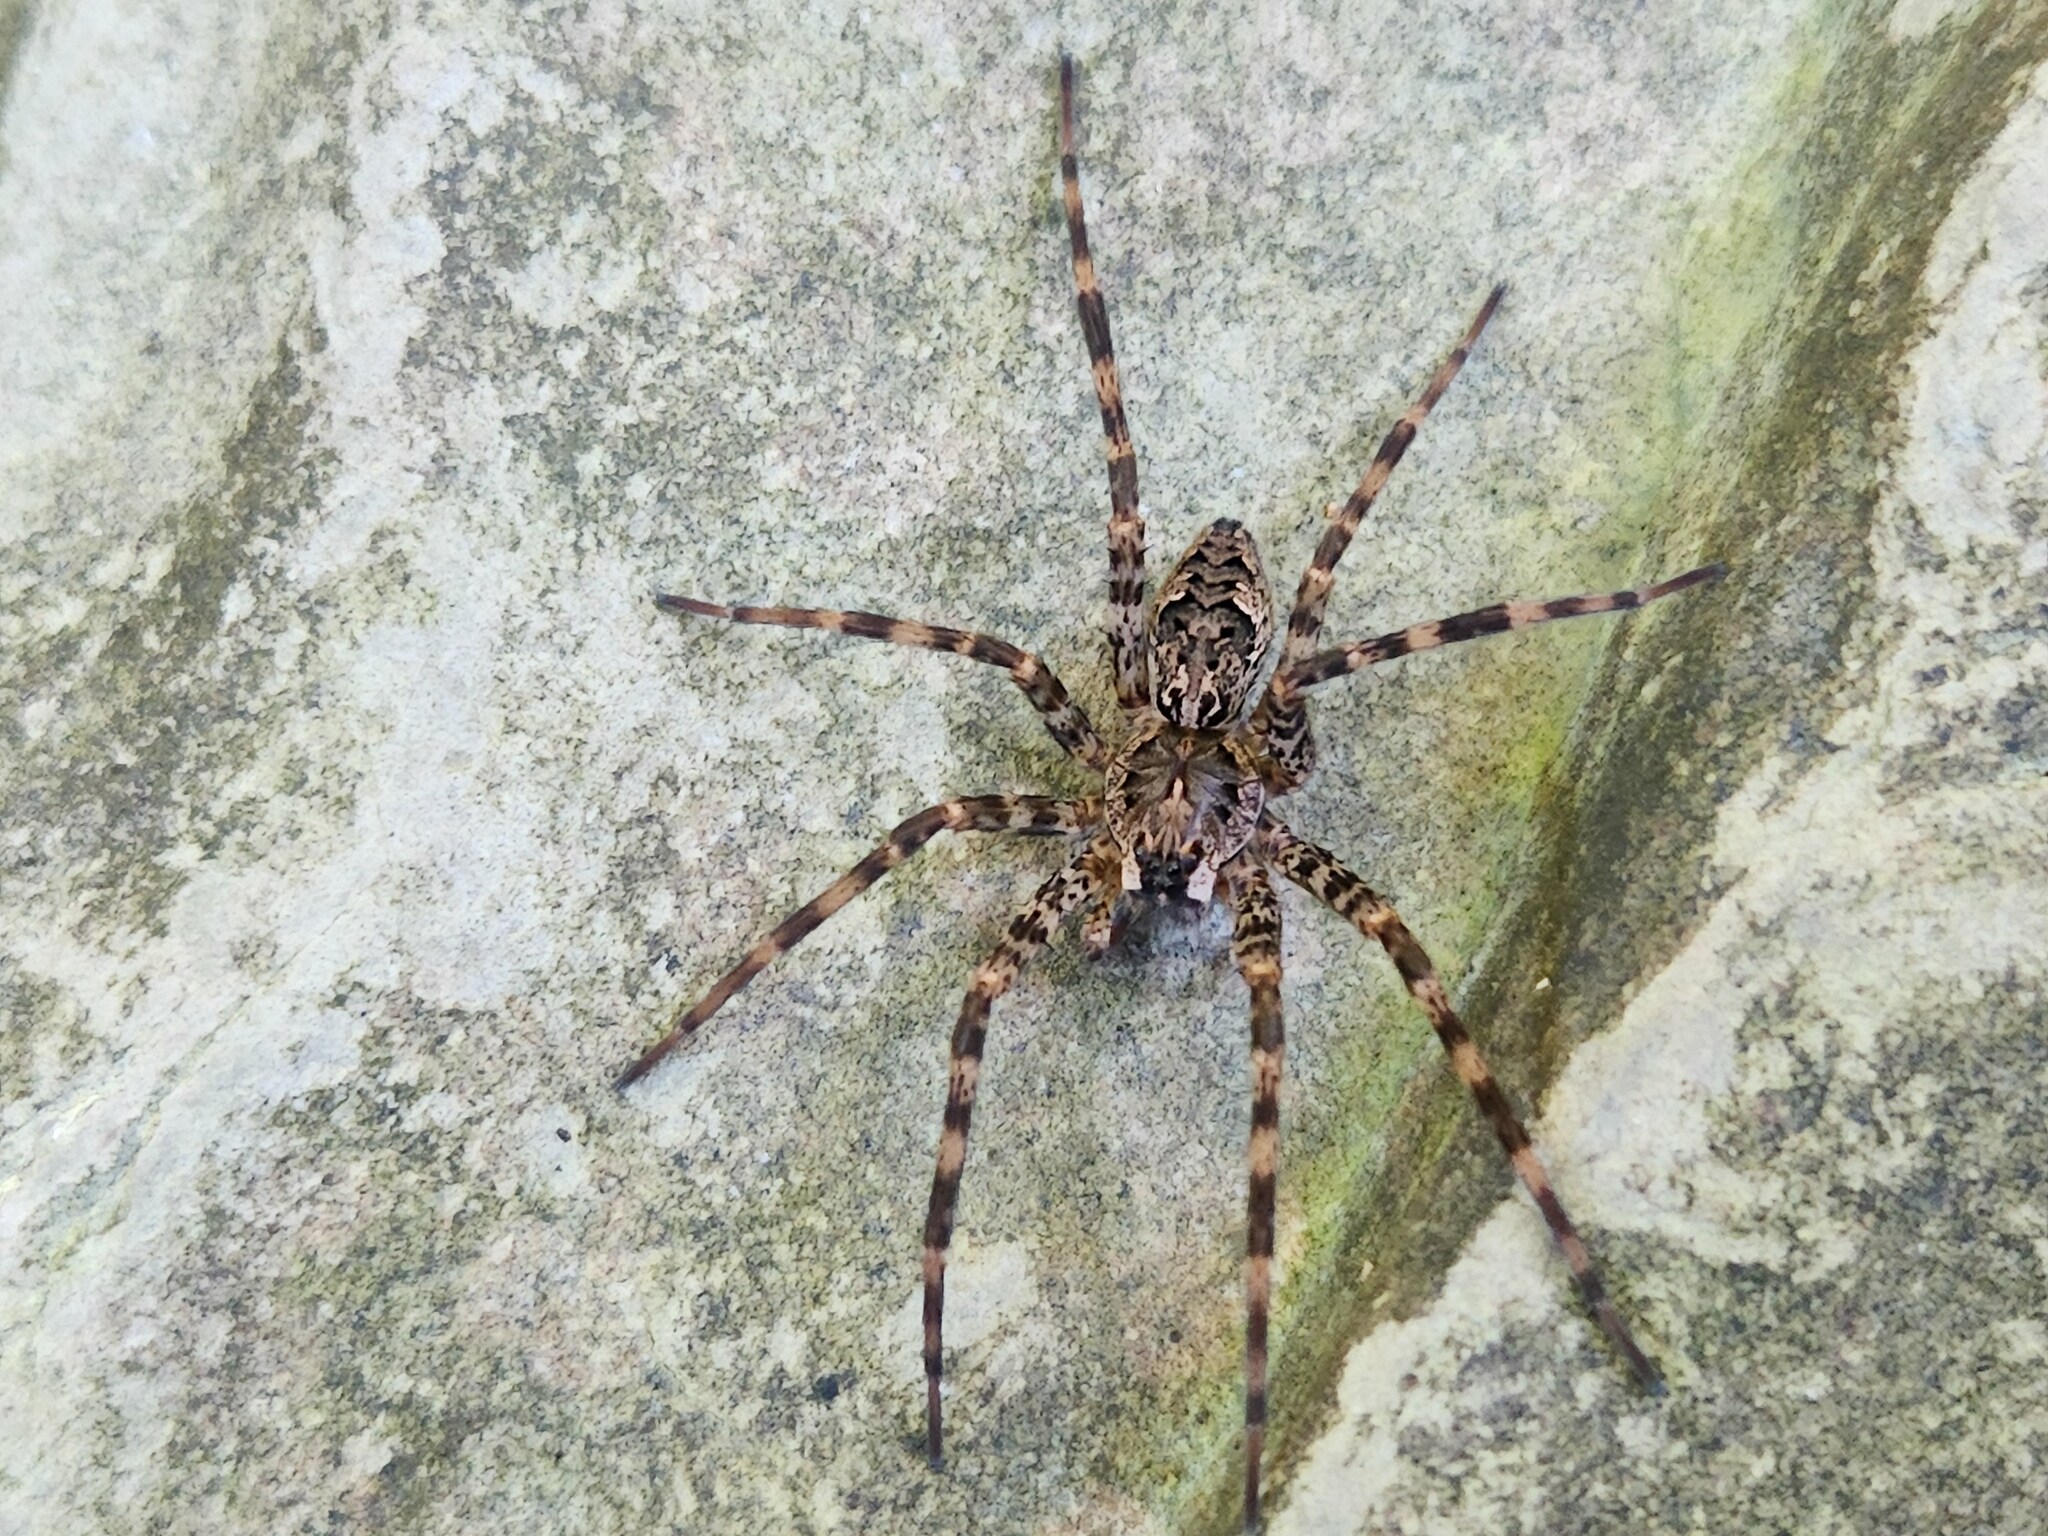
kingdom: Animalia
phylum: Arthropoda
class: Arachnida
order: Araneae
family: Pisauridae
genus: Dolomedes
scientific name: Dolomedes tenebrosus
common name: Dark fishing spider
